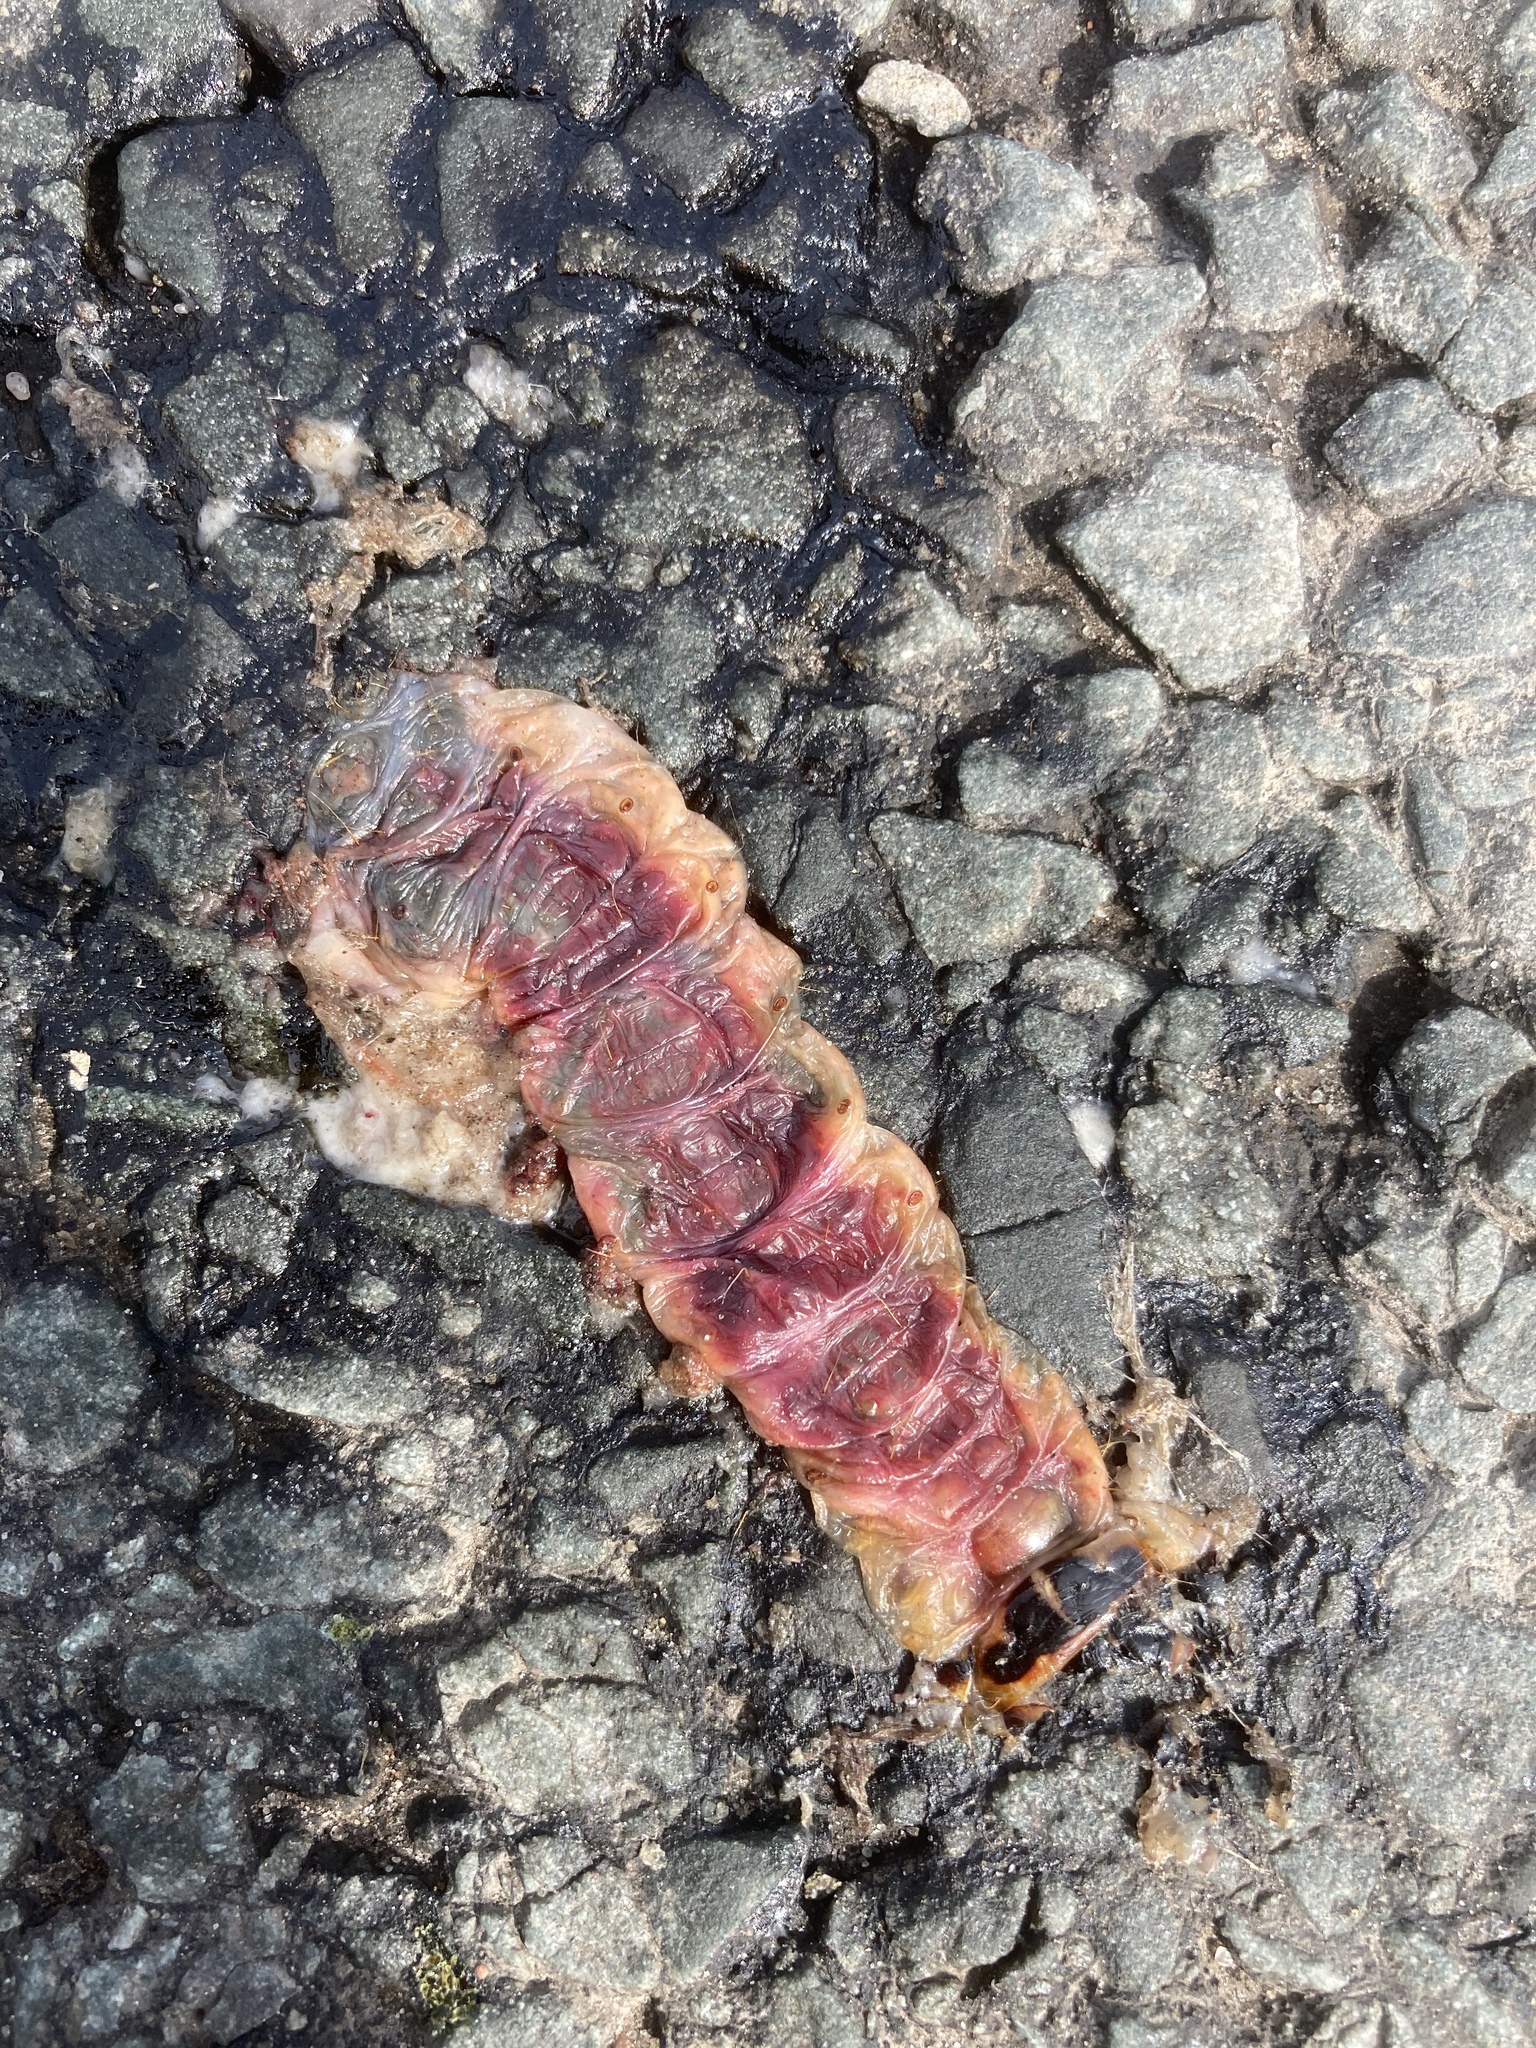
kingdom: Animalia
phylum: Arthropoda
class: Insecta
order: Lepidoptera
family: Cossidae
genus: Cossus
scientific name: Cossus cossus
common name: Goat moth
